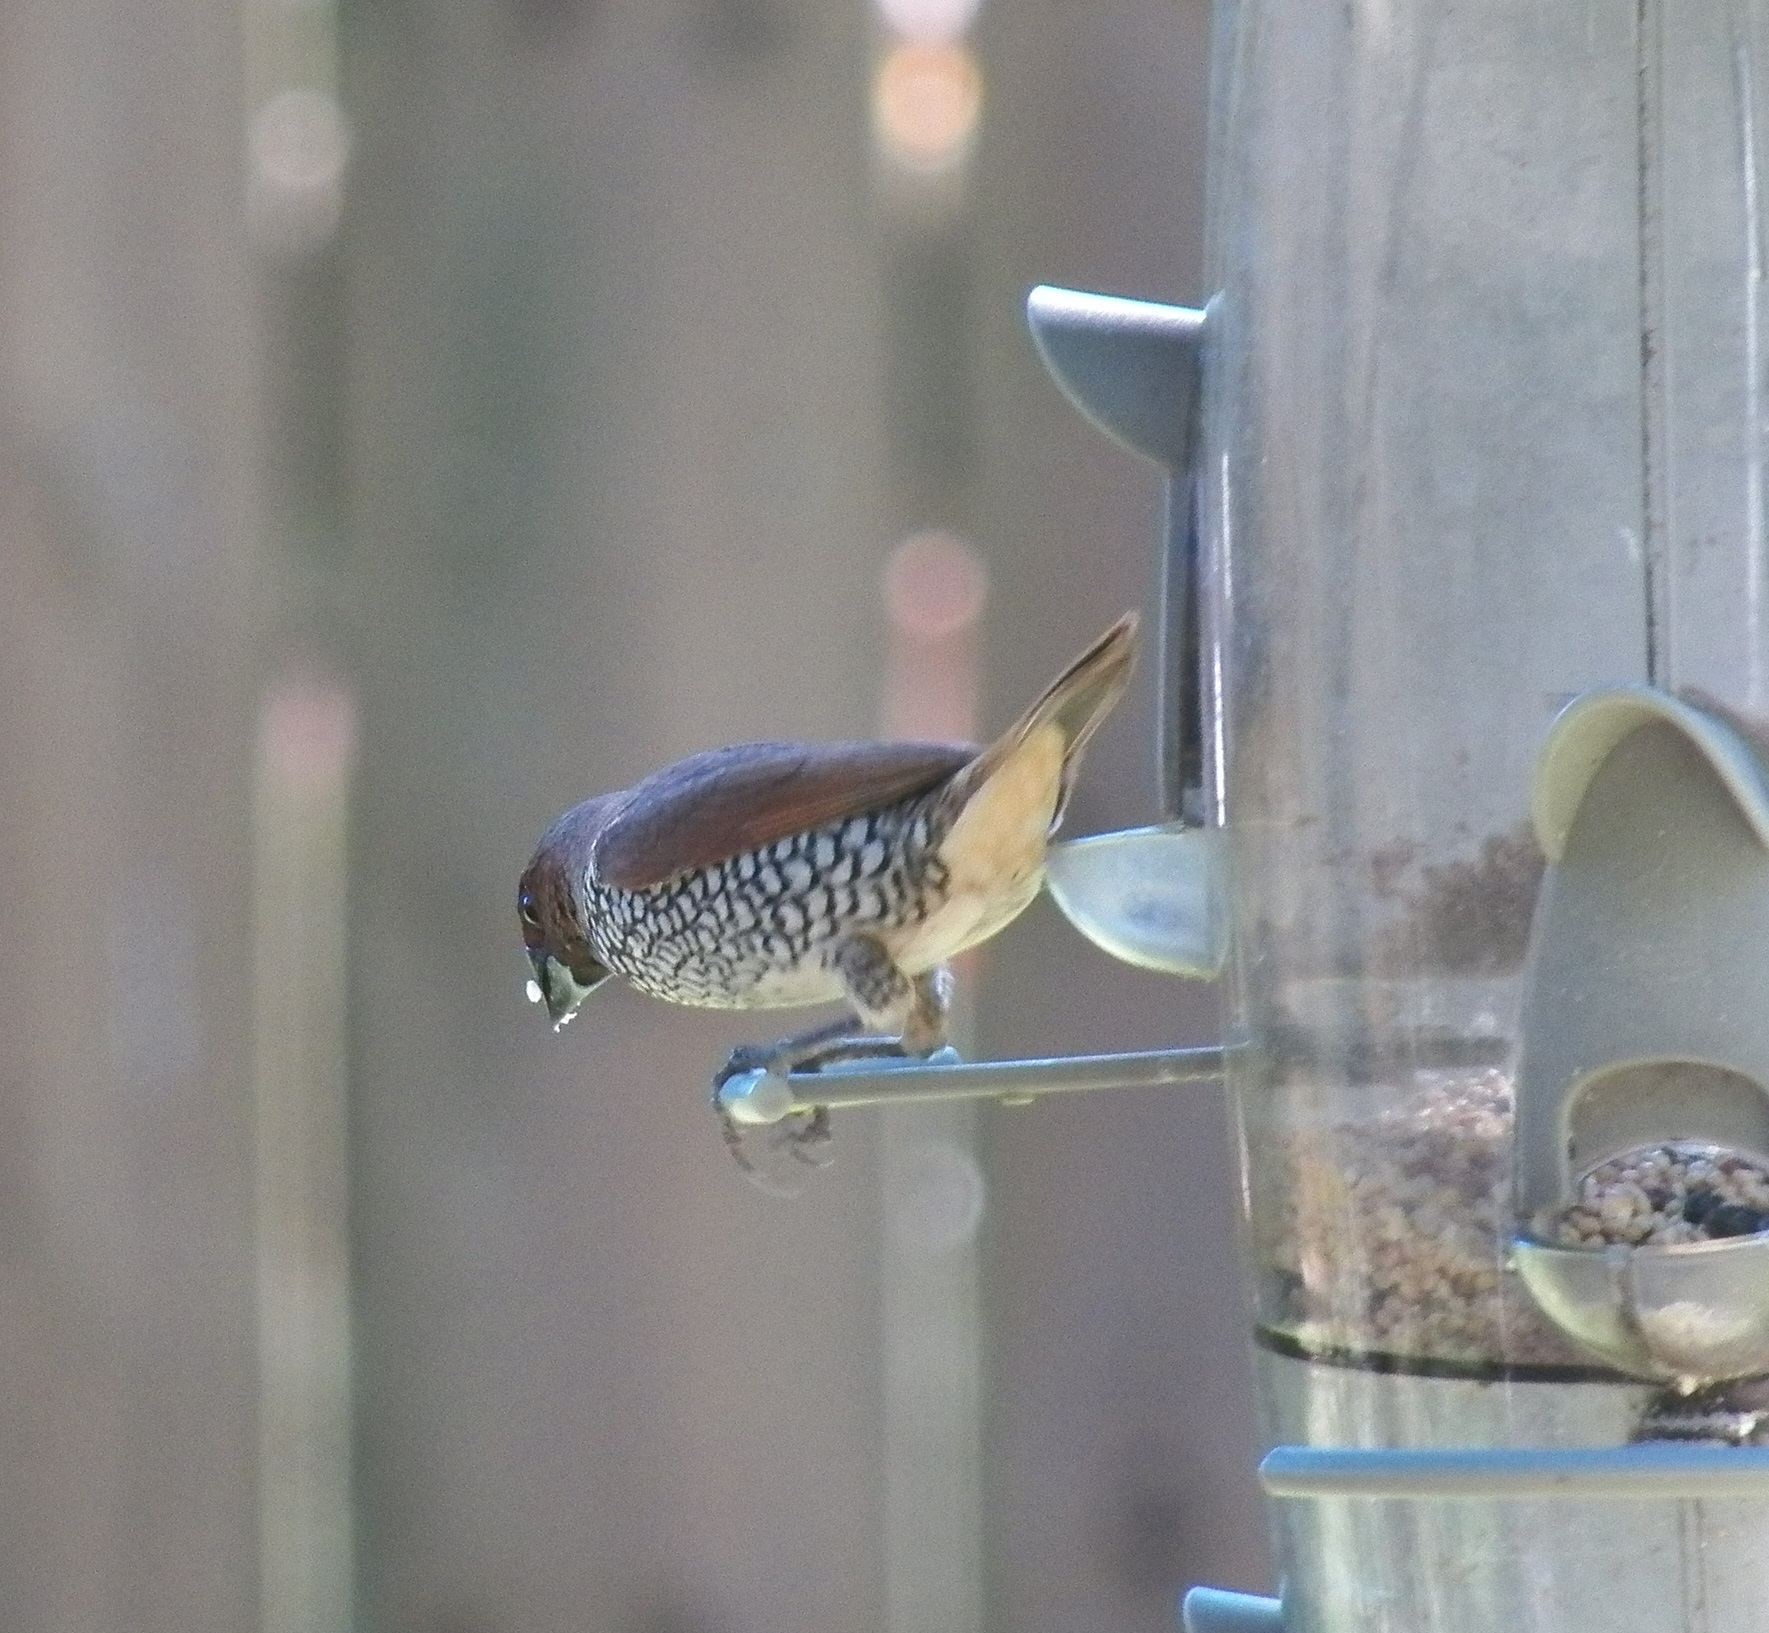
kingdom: Animalia
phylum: Chordata
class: Aves
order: Passeriformes
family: Estrildidae
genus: Lonchura
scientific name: Lonchura punctulata
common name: Scaly-breasted munia
